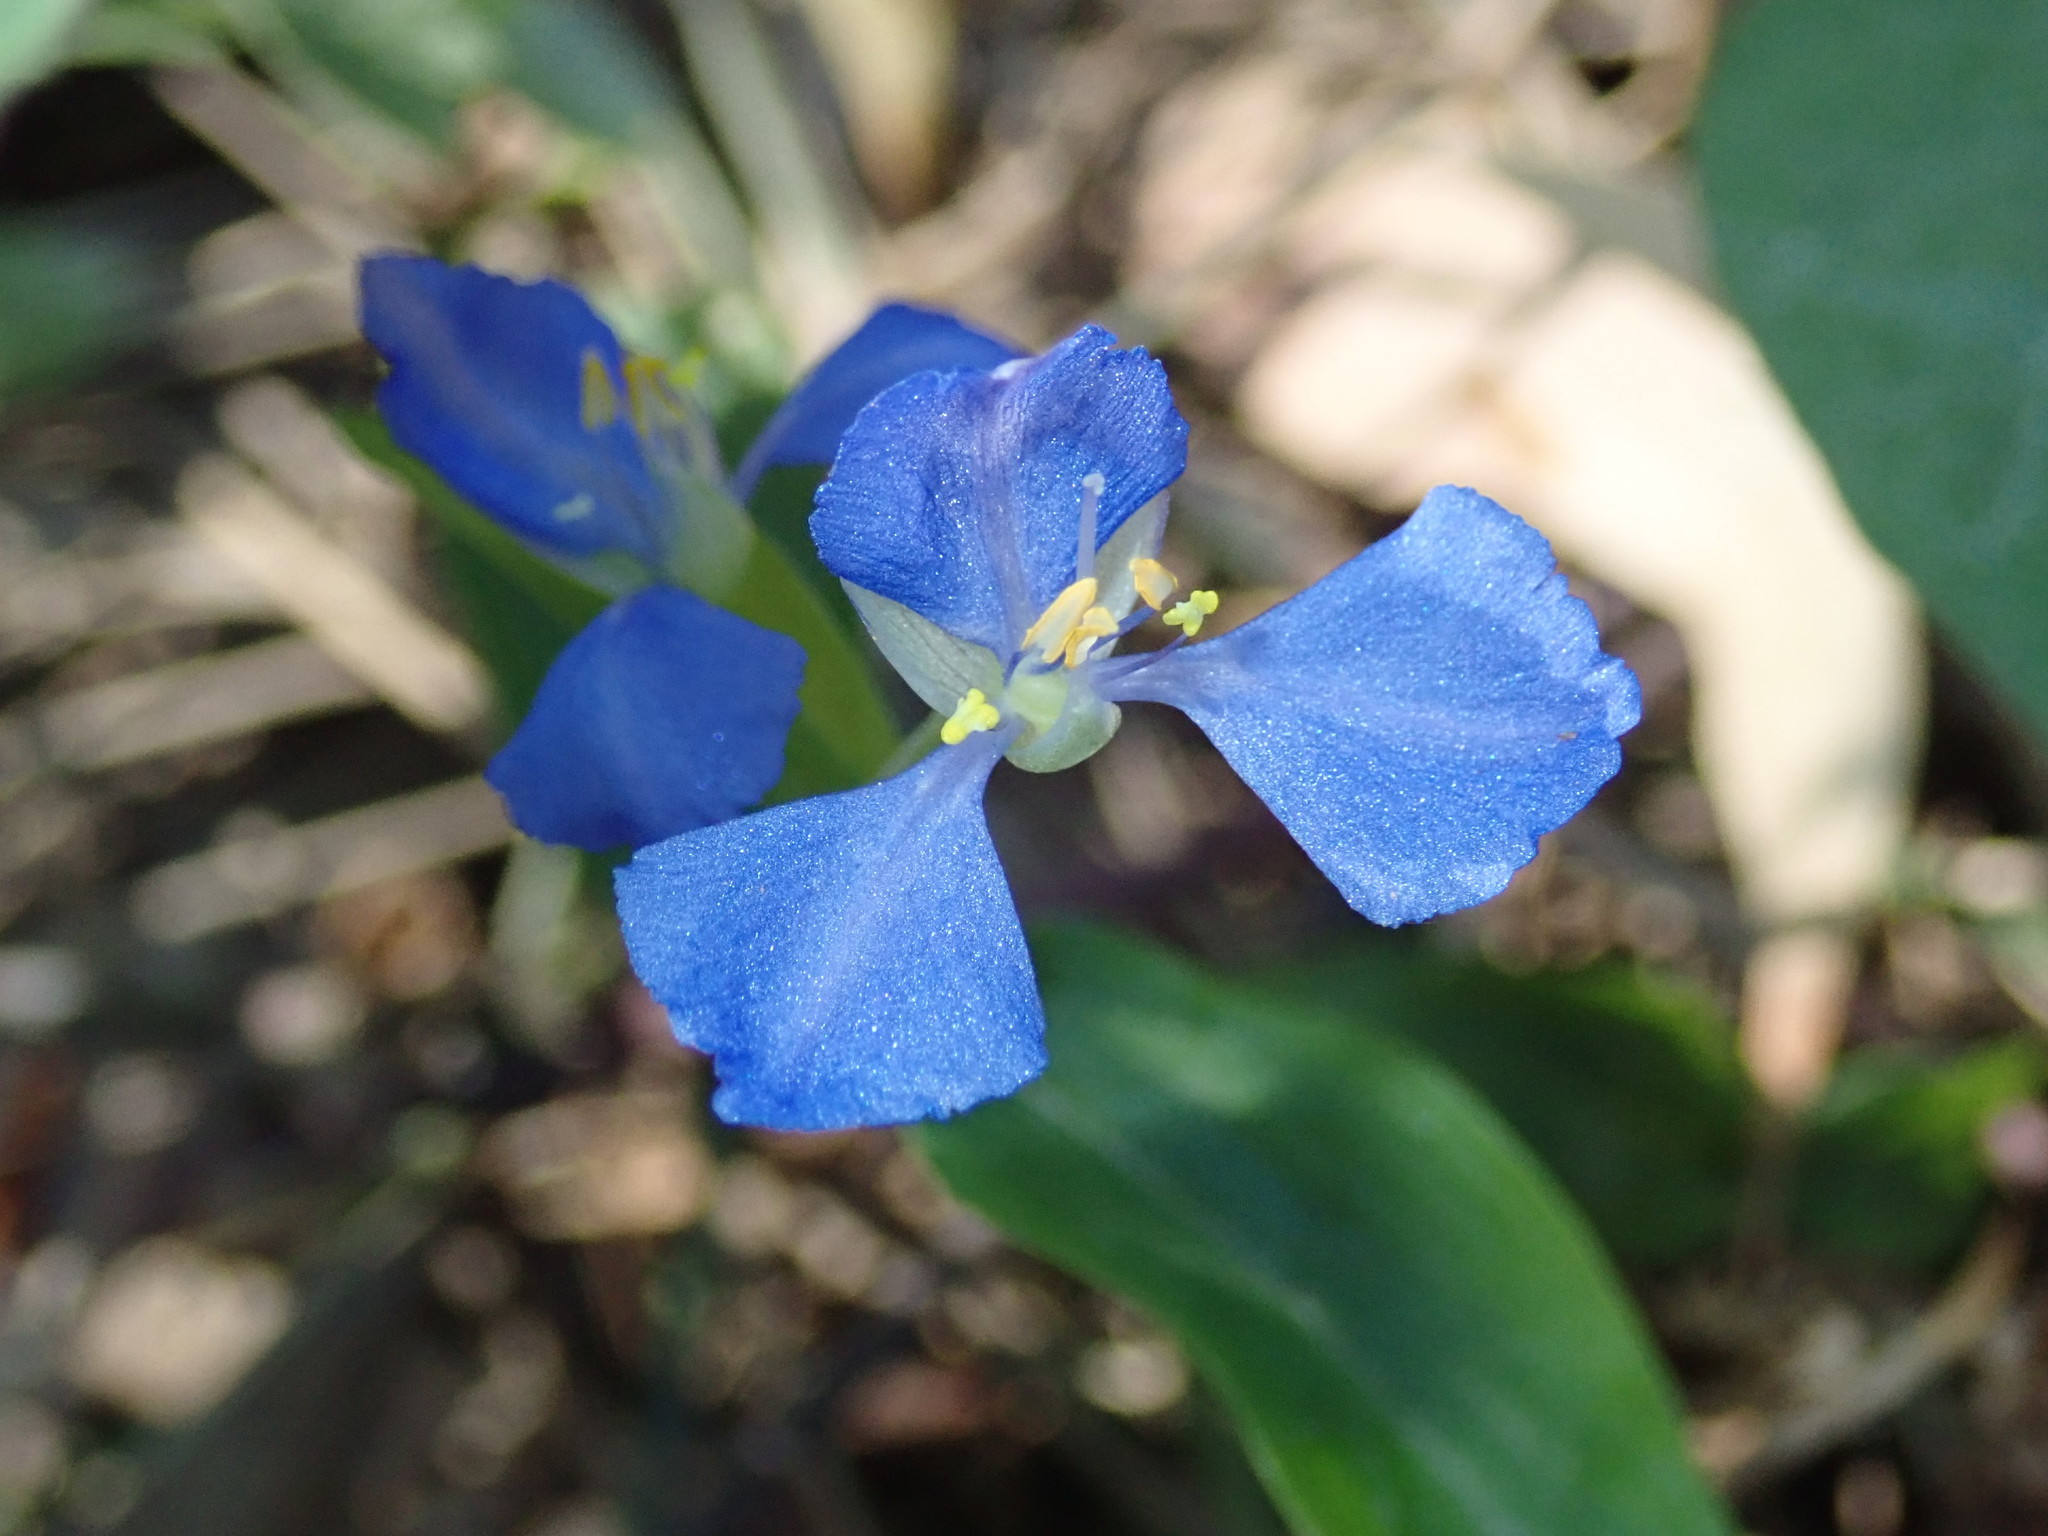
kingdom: Plantae
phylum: Tracheophyta
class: Liliopsida
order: Commelinales
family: Commelinaceae
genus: Commelina
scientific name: Commelina cyanea
